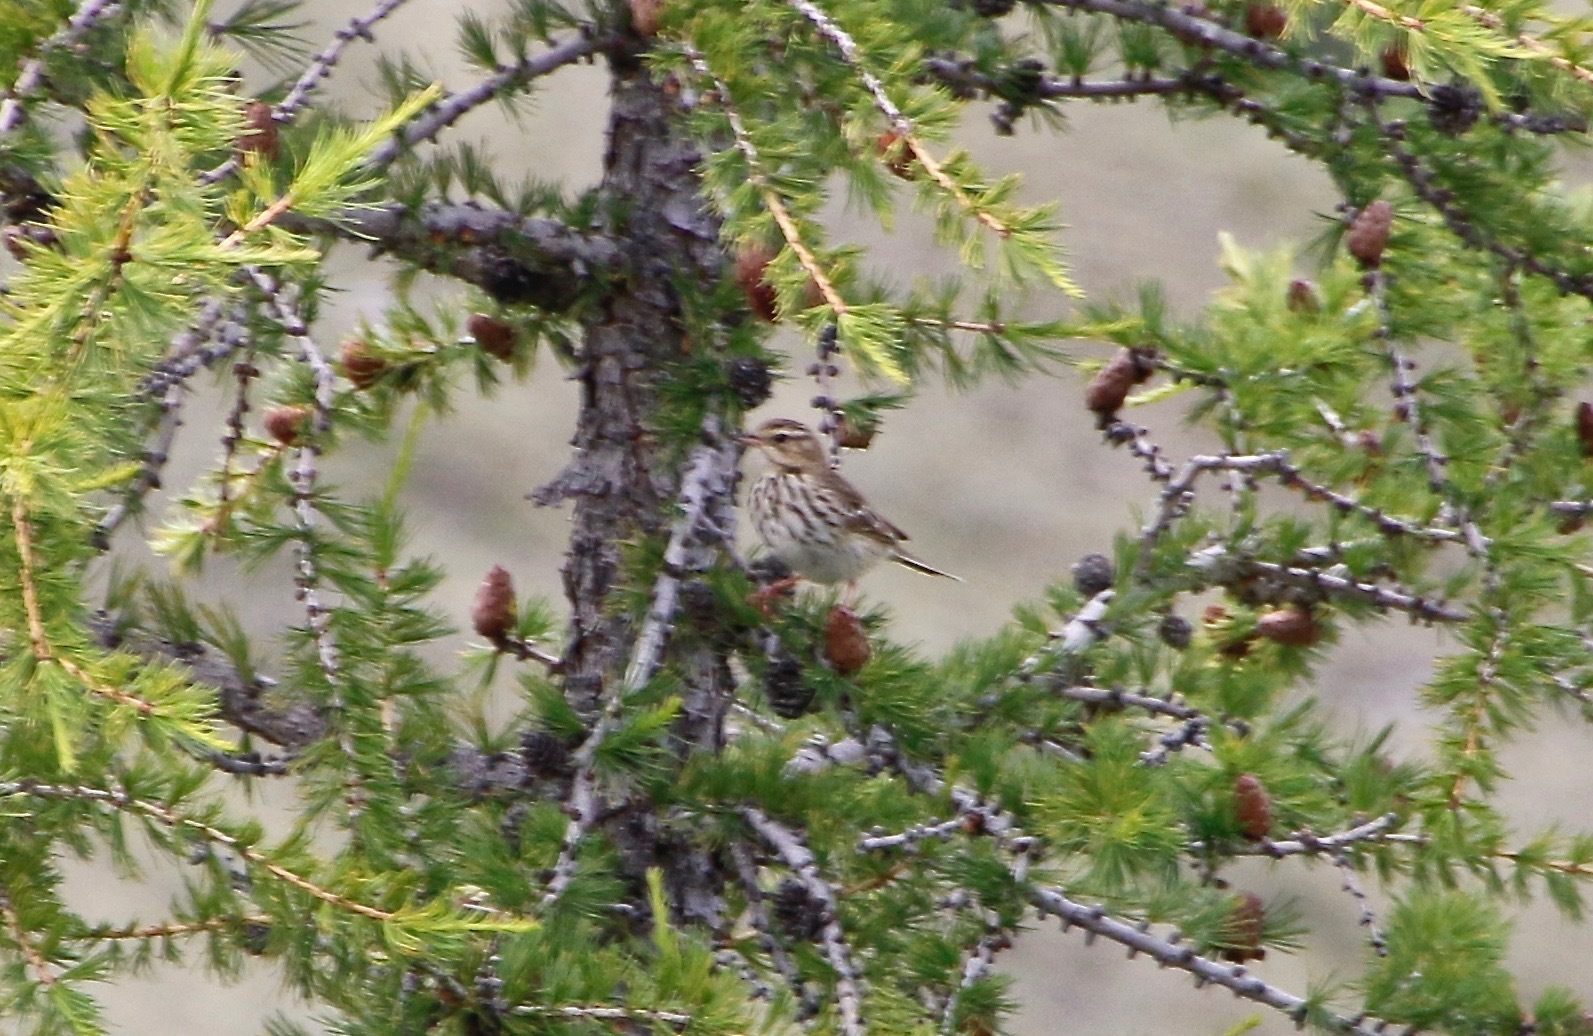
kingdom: Animalia
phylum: Chordata
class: Aves
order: Passeriformes
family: Motacillidae
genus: Anthus
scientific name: Anthus trivialis
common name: Tree pipit
